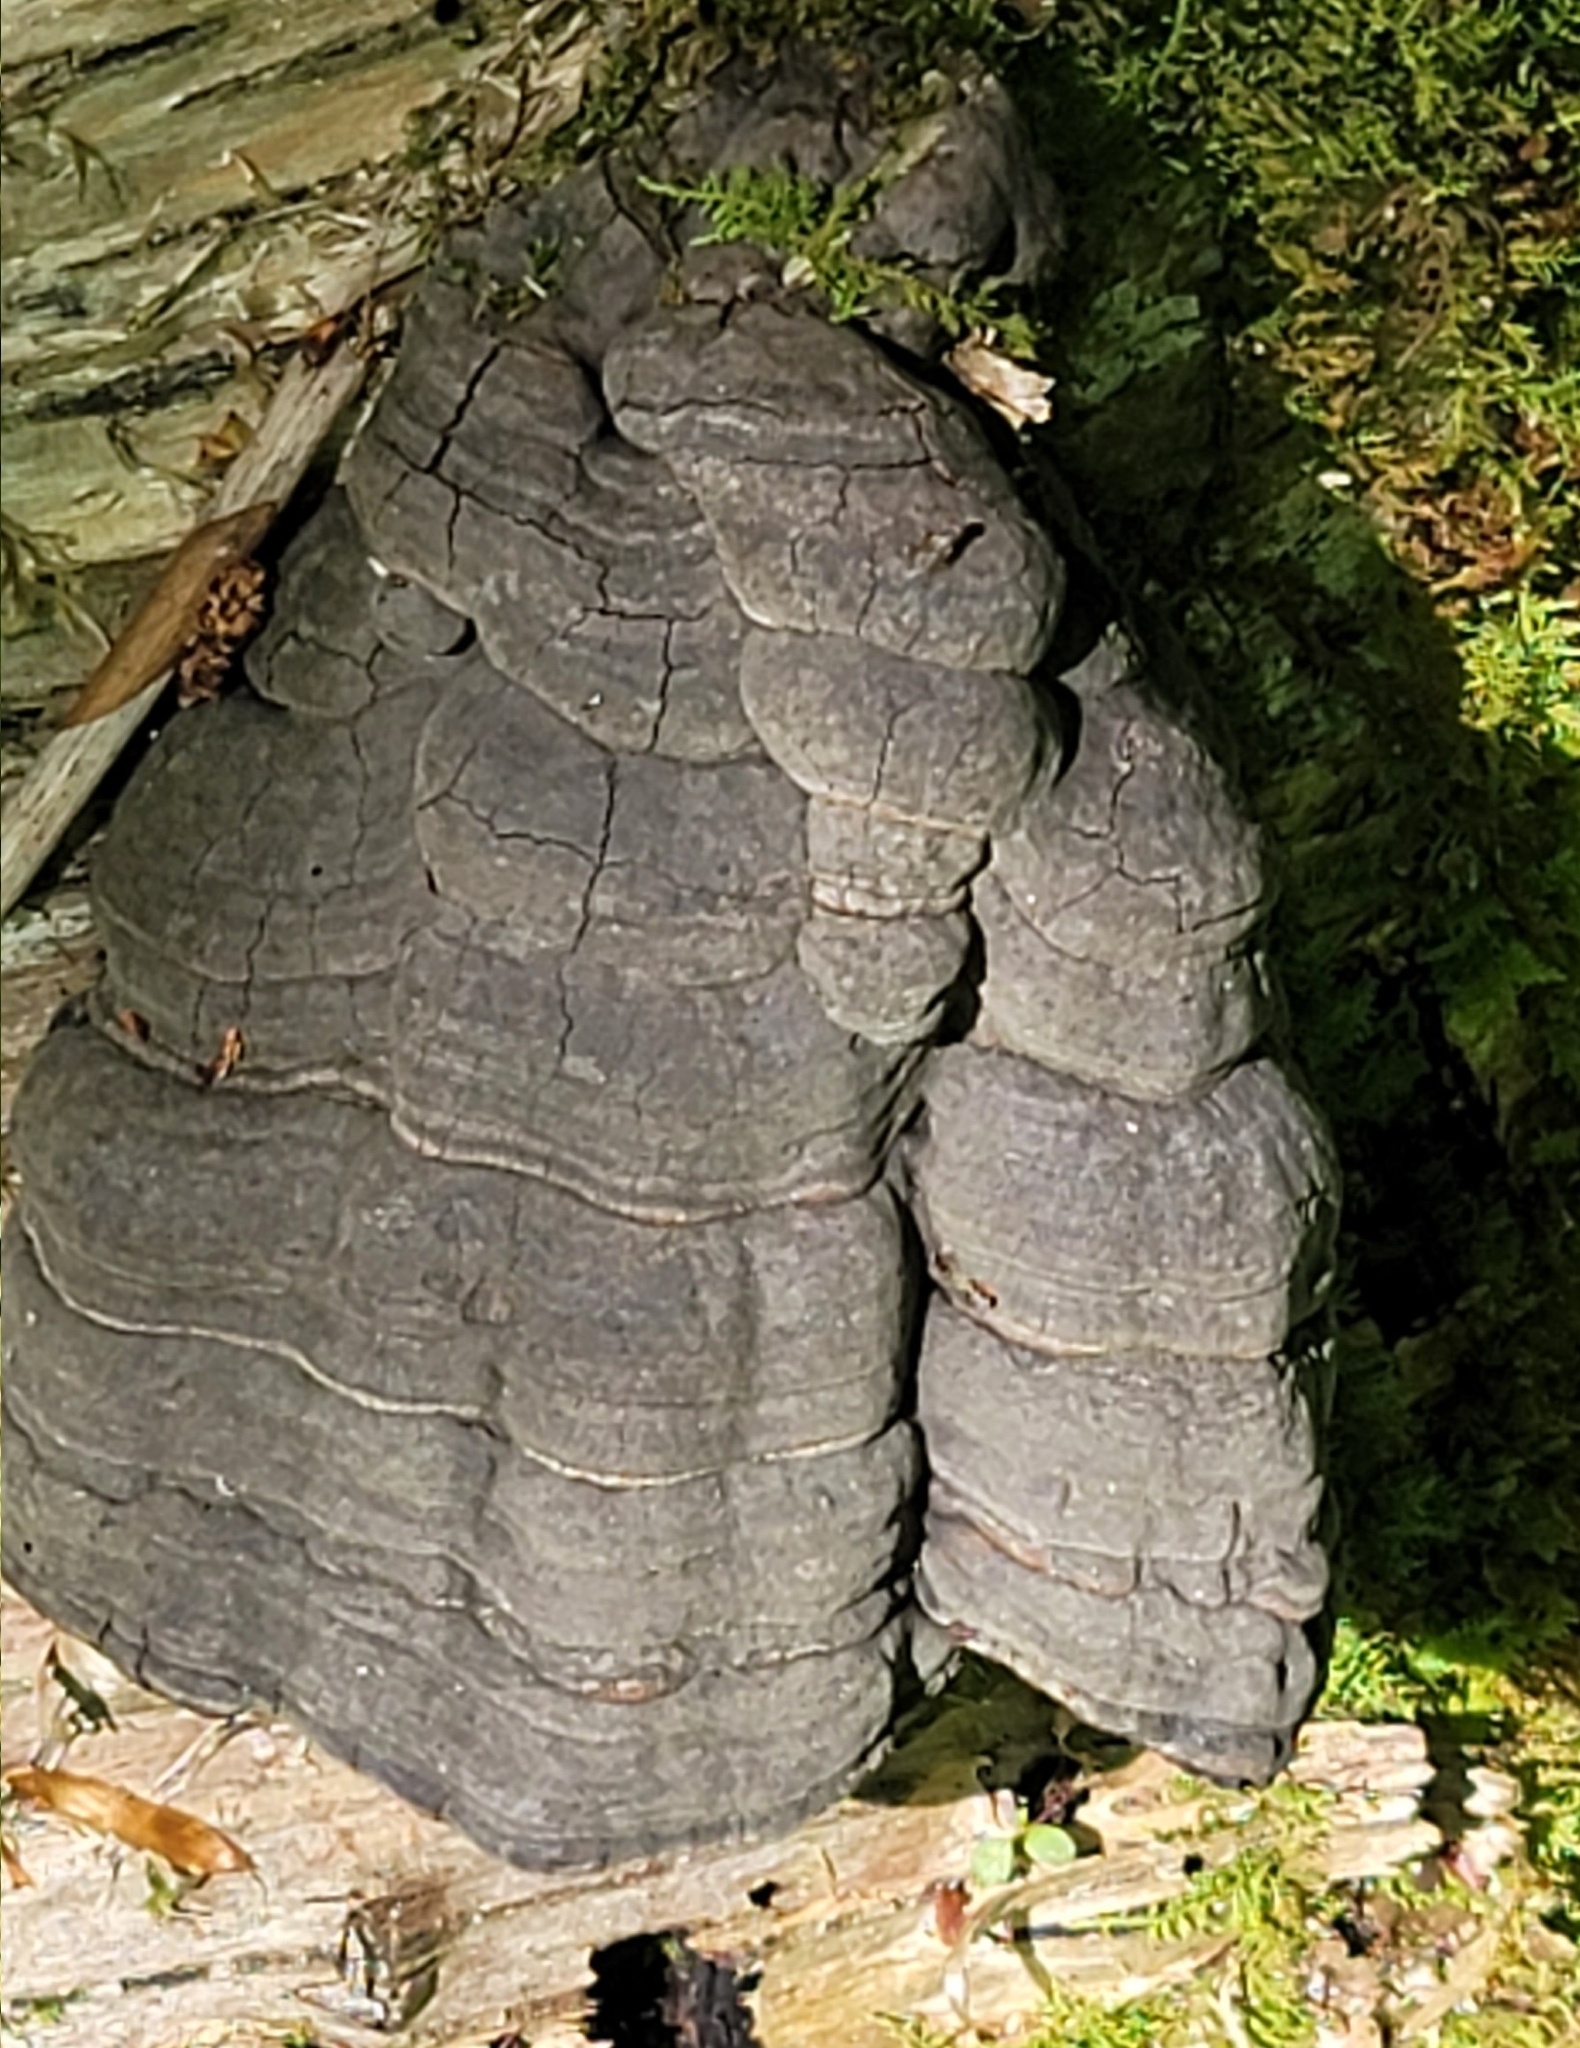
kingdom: Fungi
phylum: Basidiomycota
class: Agaricomycetes
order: Polyporales
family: Polyporaceae
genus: Fomes
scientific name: Fomes fomentarius
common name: Hoof fungus
